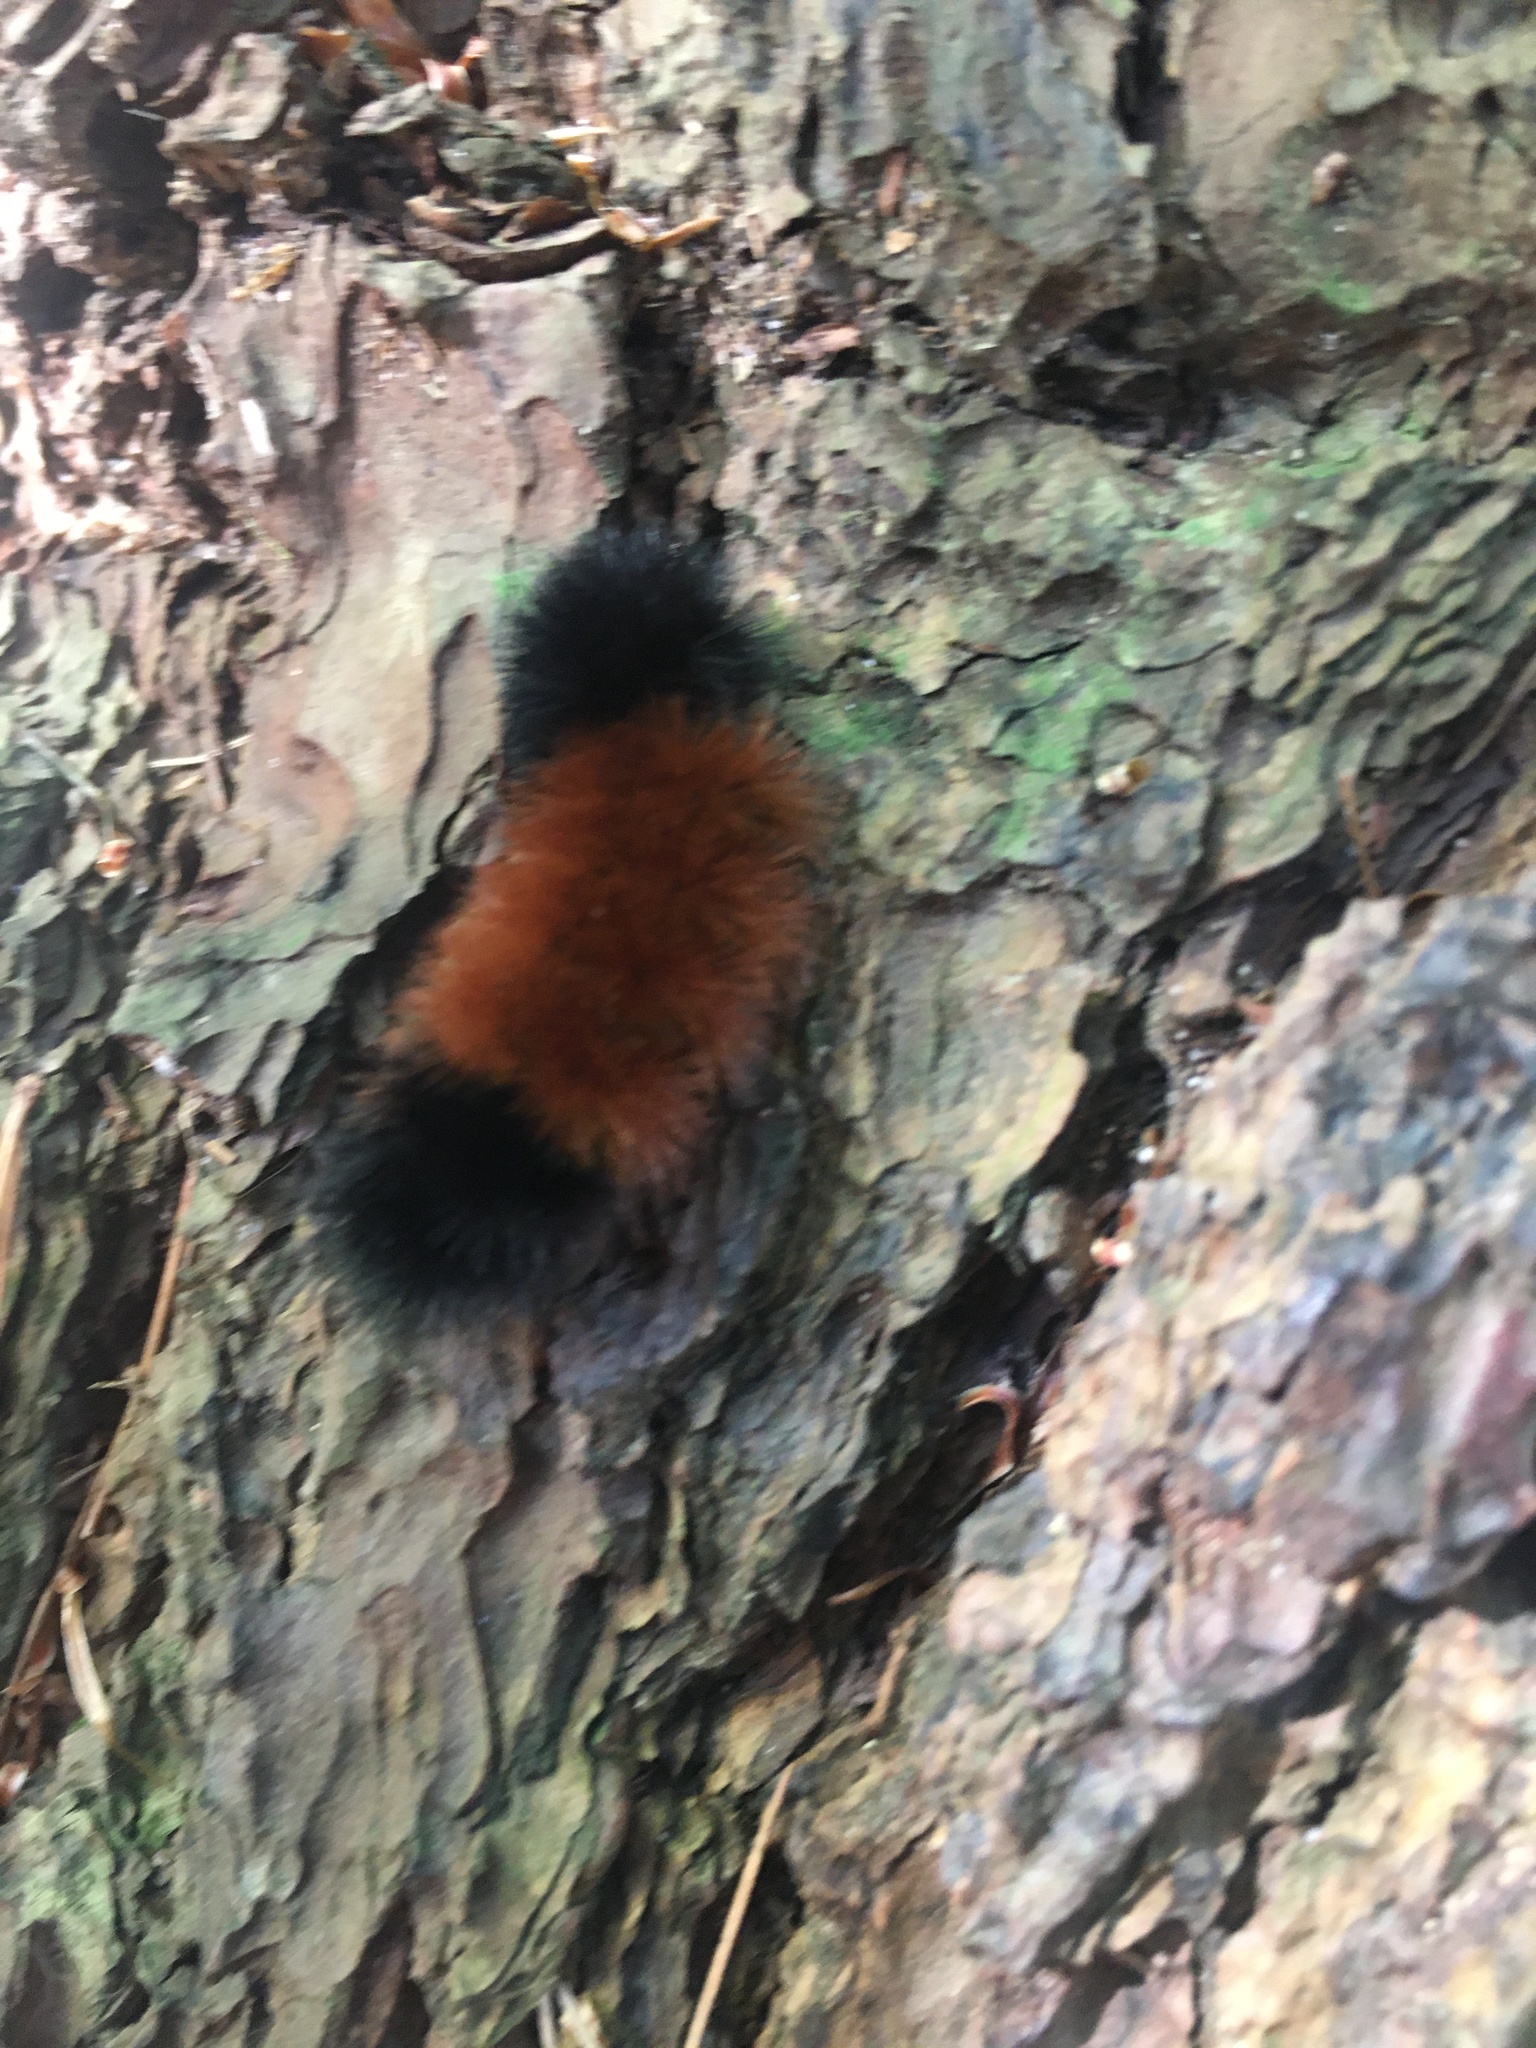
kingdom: Animalia
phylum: Arthropoda
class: Insecta
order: Lepidoptera
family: Erebidae
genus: Pyrrharctia
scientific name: Pyrrharctia isabella
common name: Isabella tiger moth
